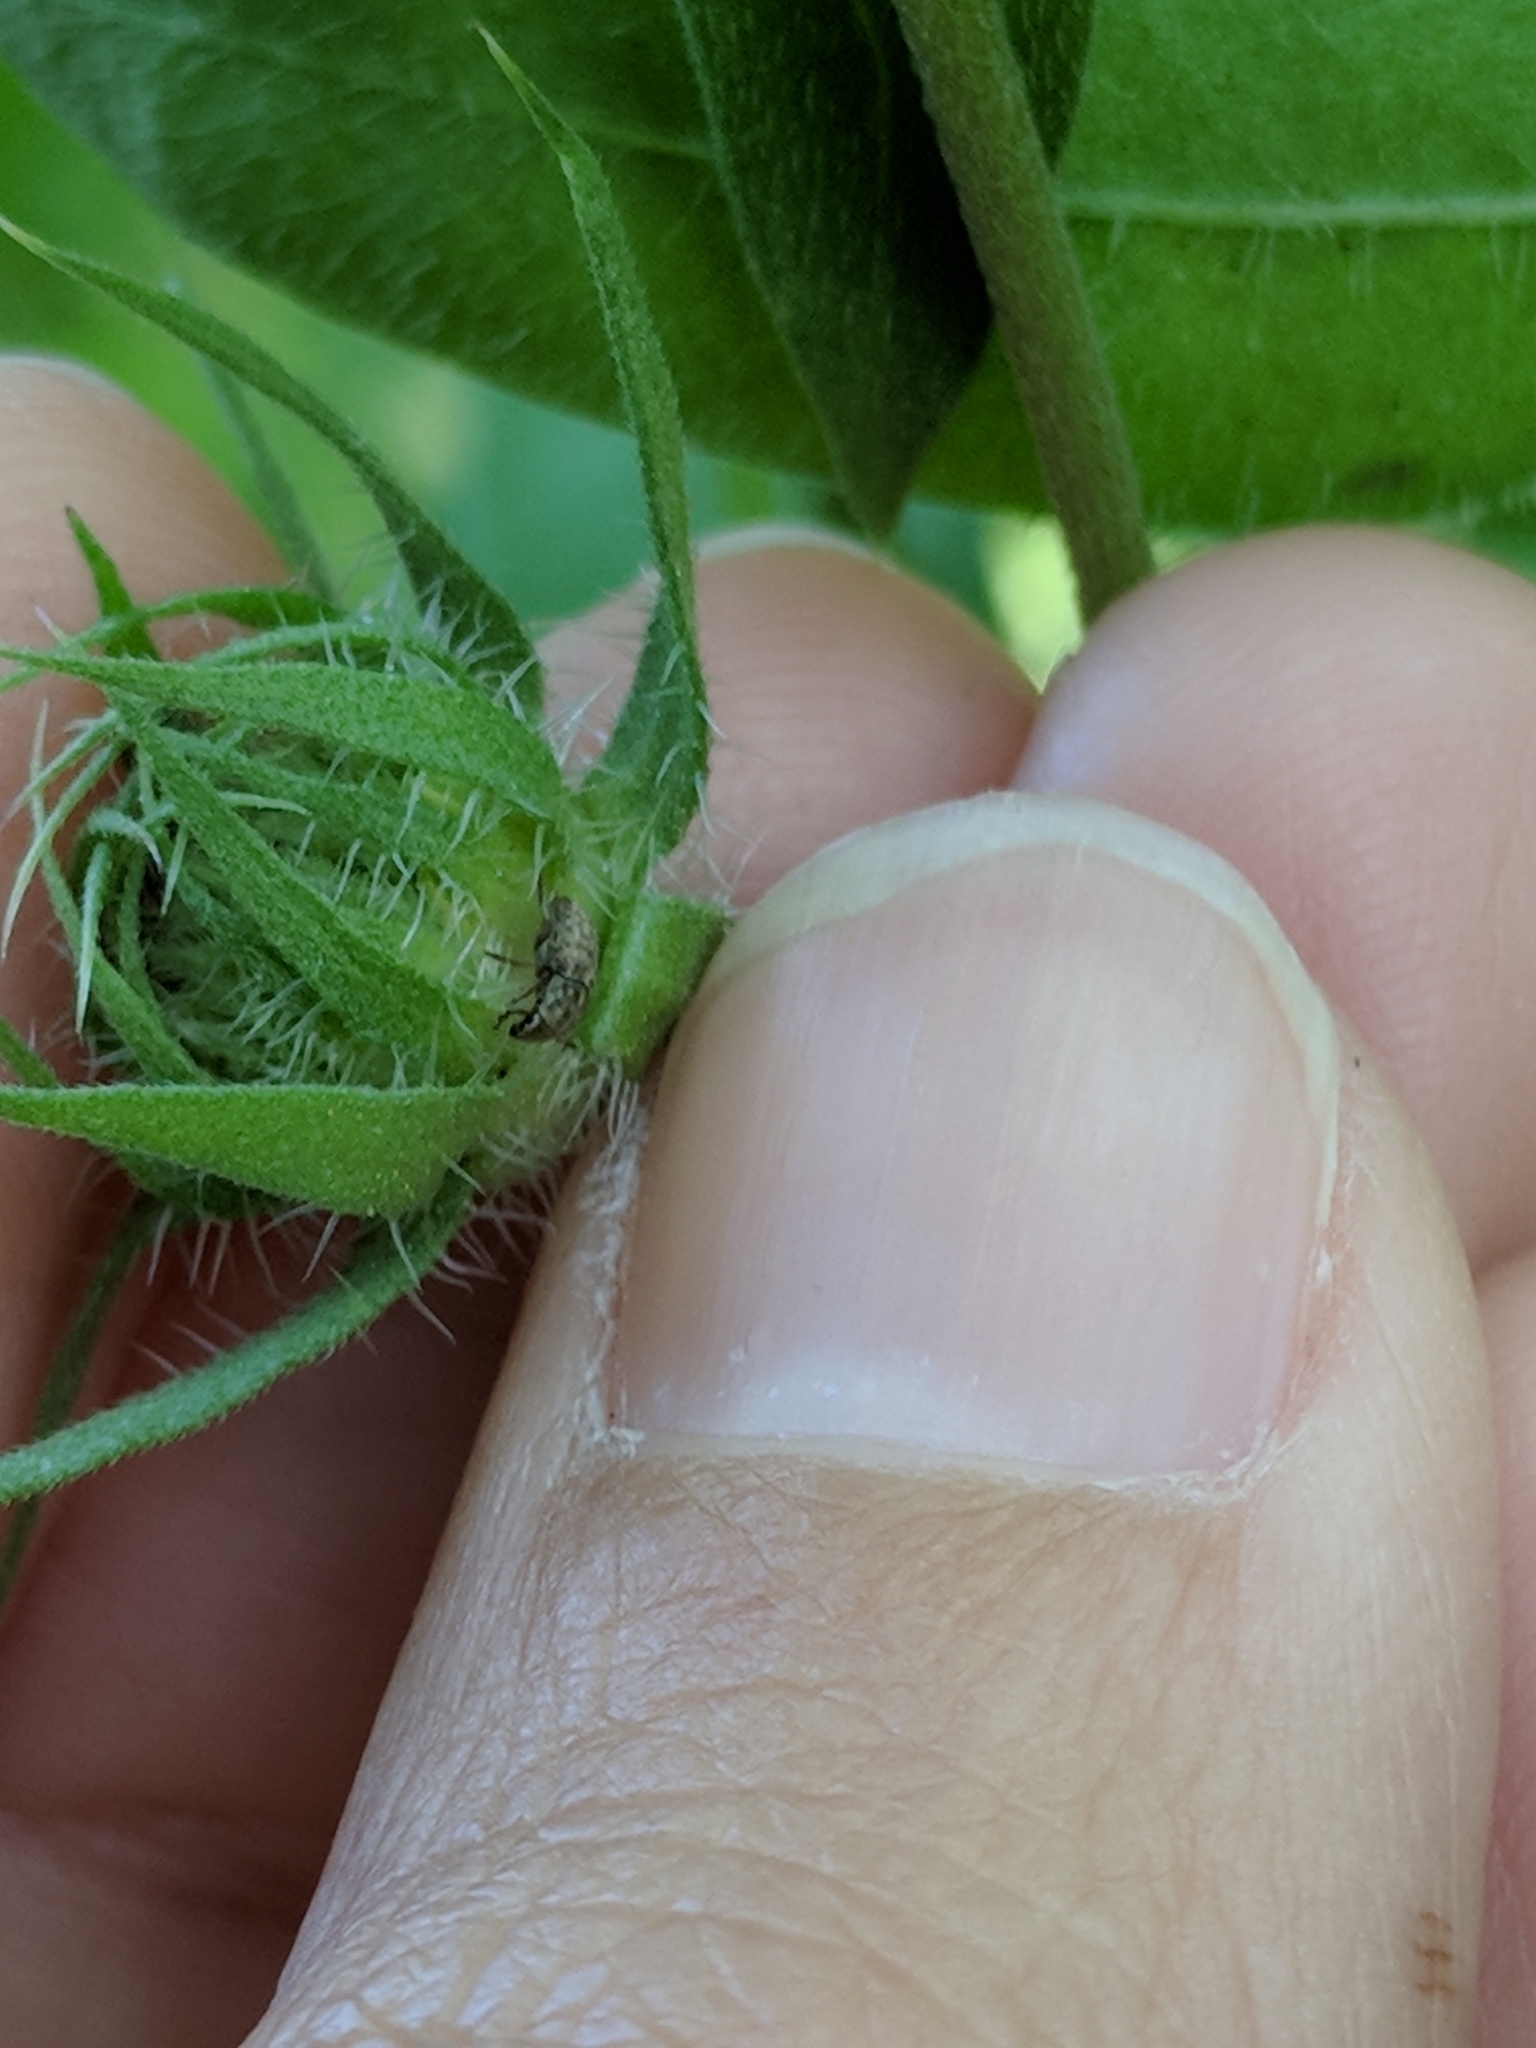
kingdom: Animalia
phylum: Arthropoda
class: Insecta
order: Coleoptera
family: Anthribidae
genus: Trigonorhinus
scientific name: Trigonorhinus limbatus
